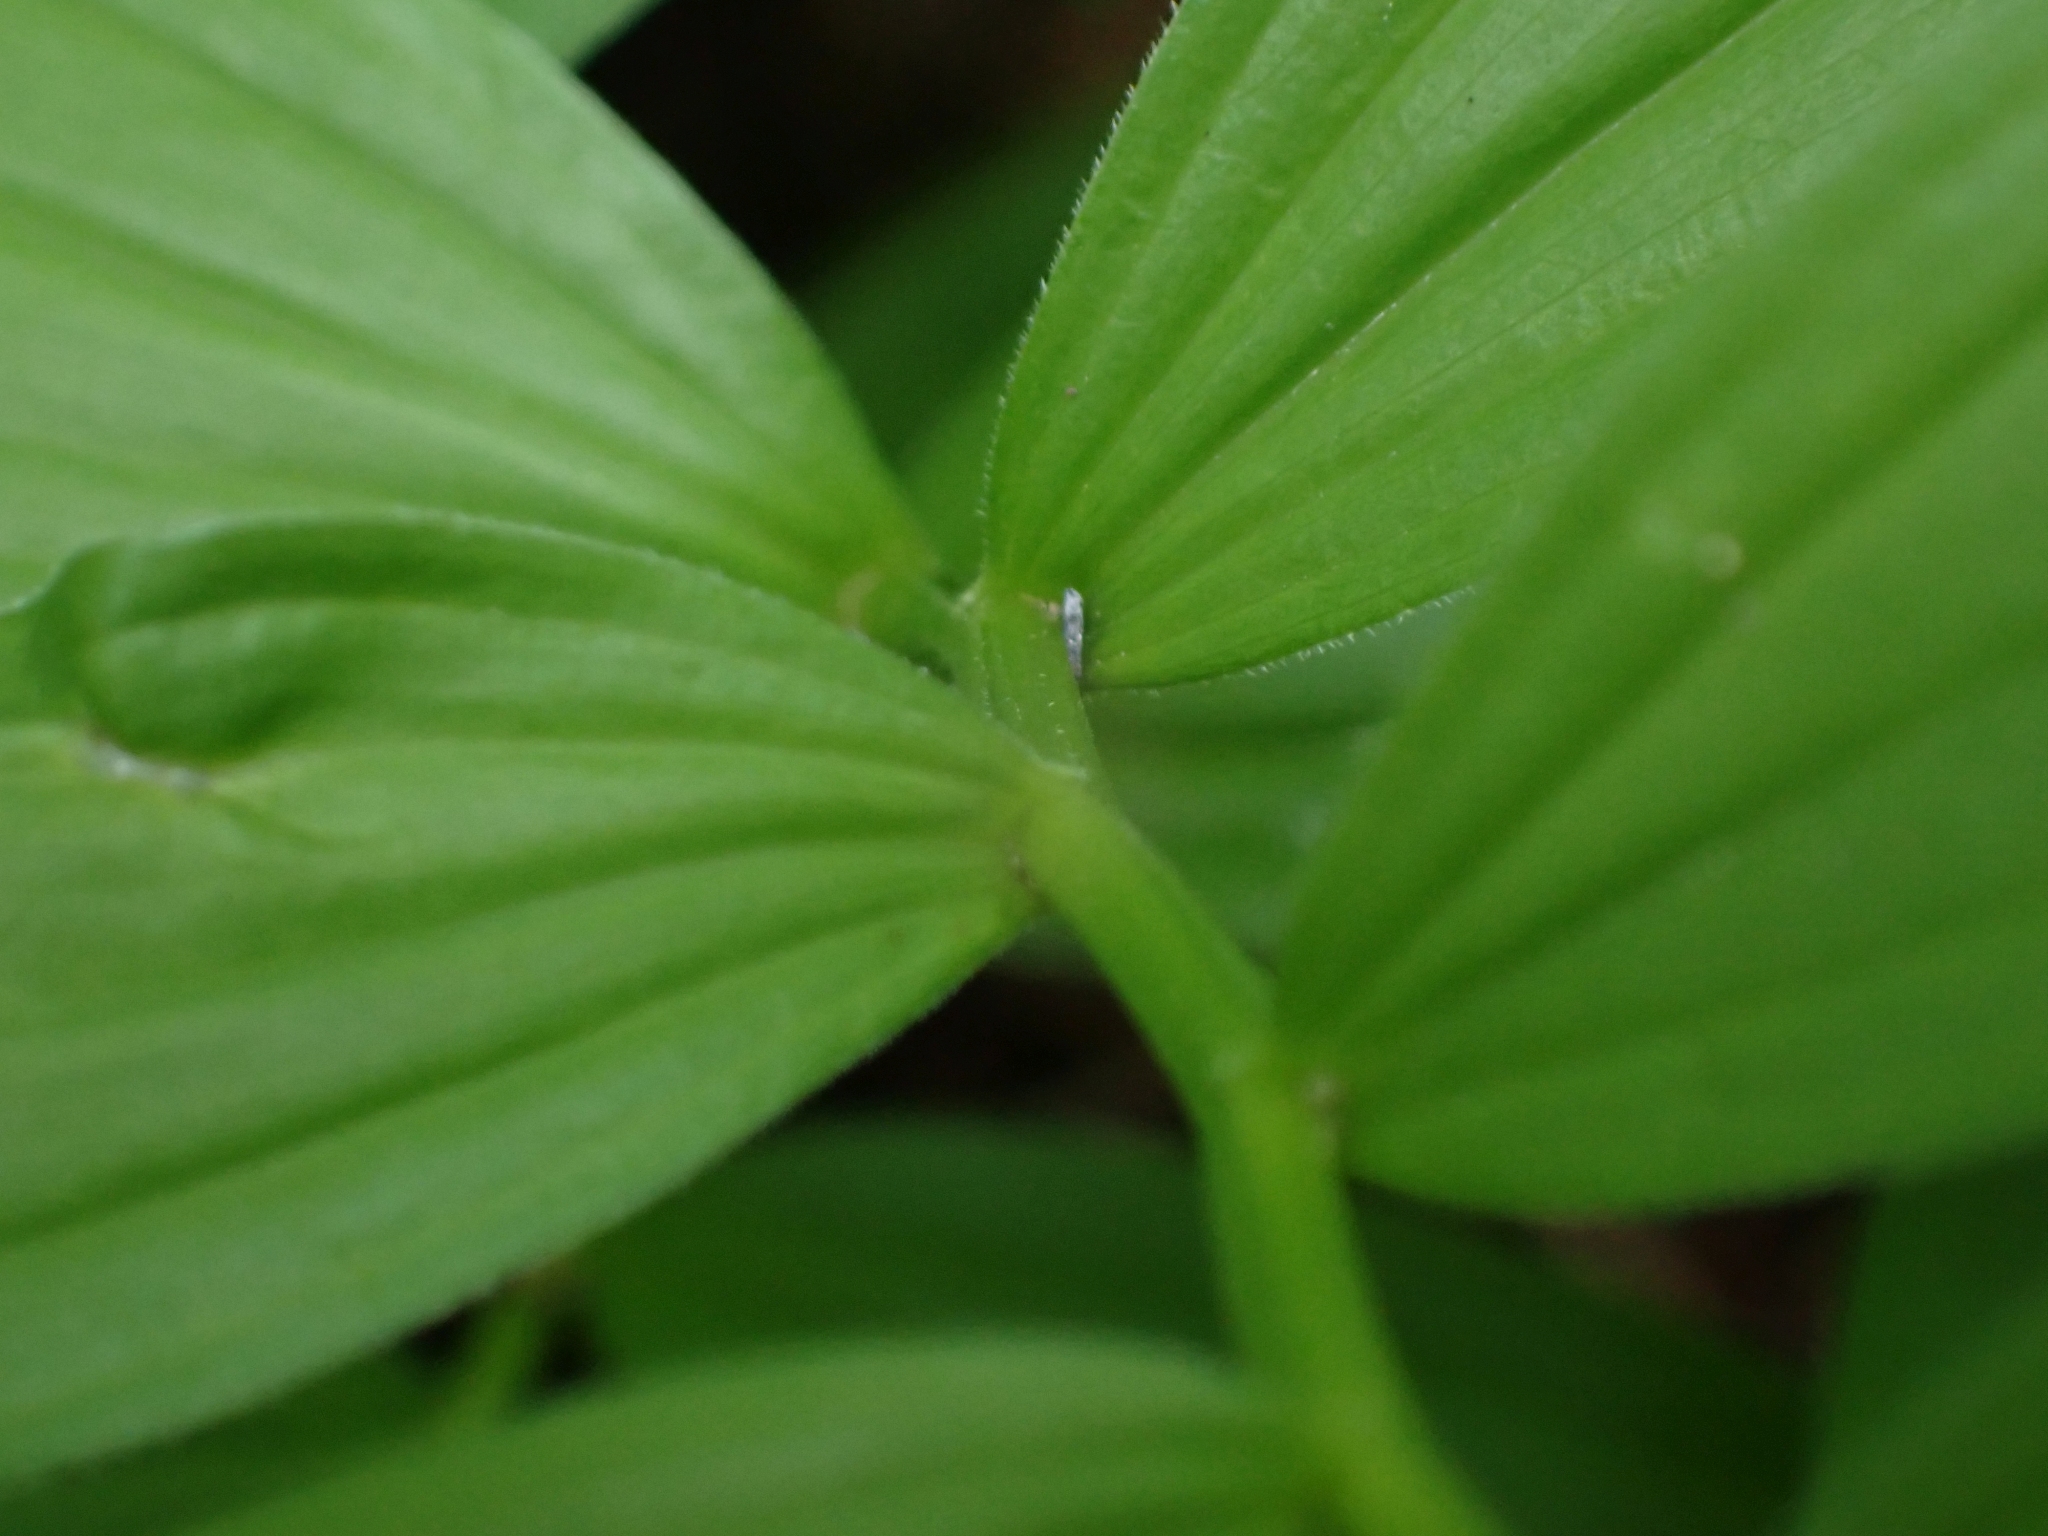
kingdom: Plantae
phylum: Tracheophyta
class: Liliopsida
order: Asparagales
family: Asparagaceae
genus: Maianthemum
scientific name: Maianthemum stellatum
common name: Little false solomon's seal
